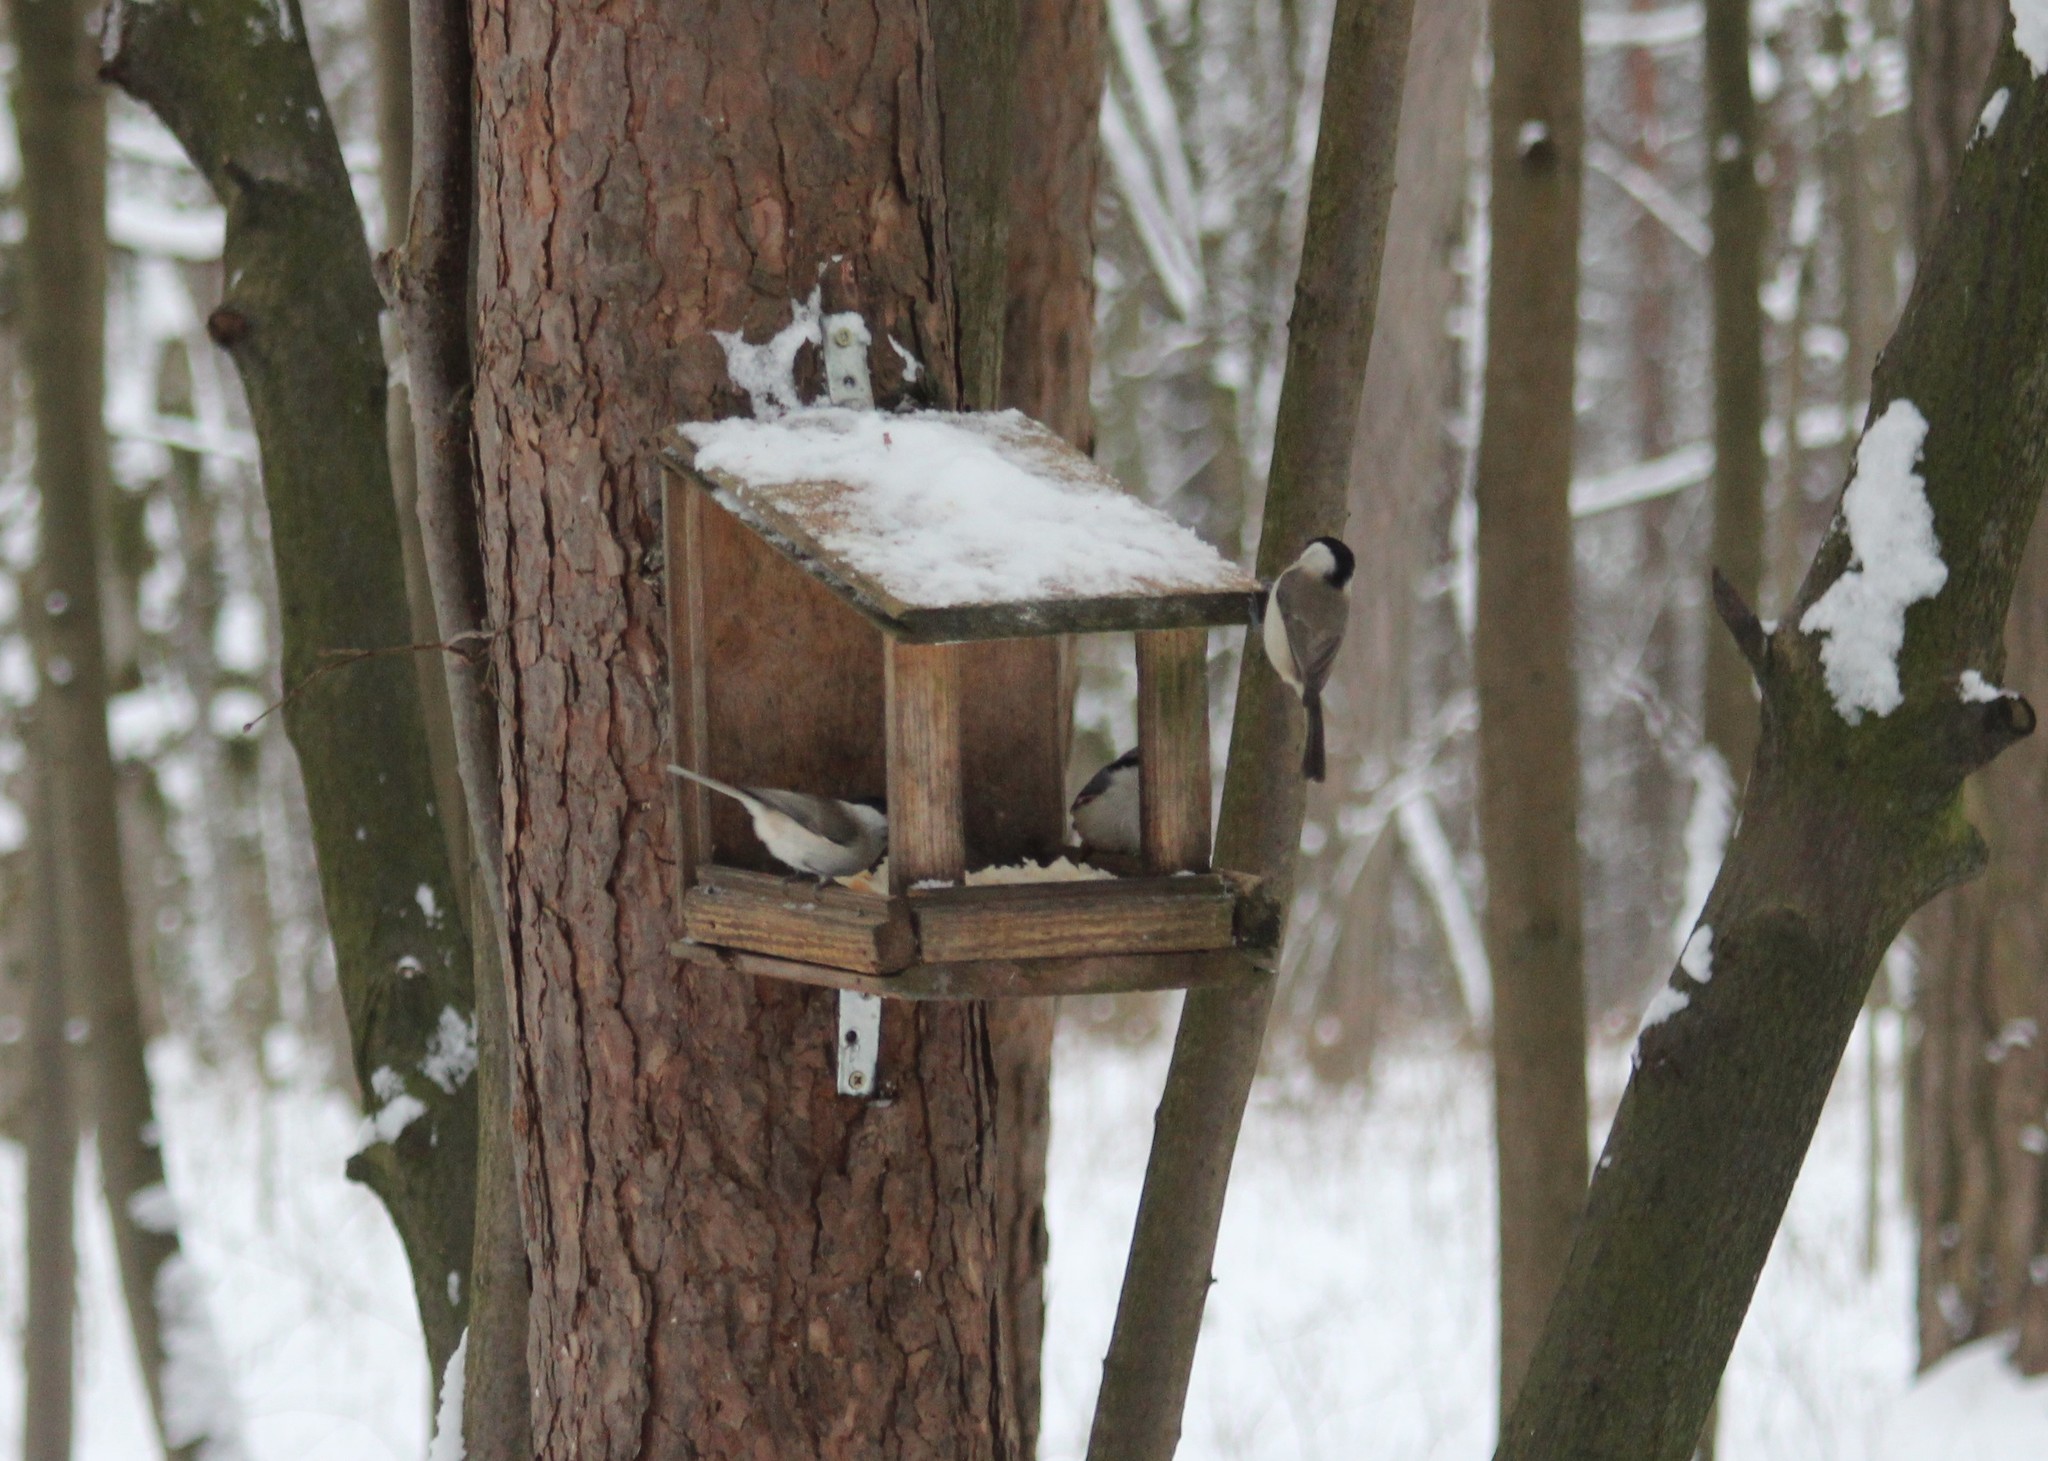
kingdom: Animalia
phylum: Chordata
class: Aves
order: Passeriformes
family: Paridae
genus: Poecile
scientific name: Poecile palustris
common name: Marsh tit
